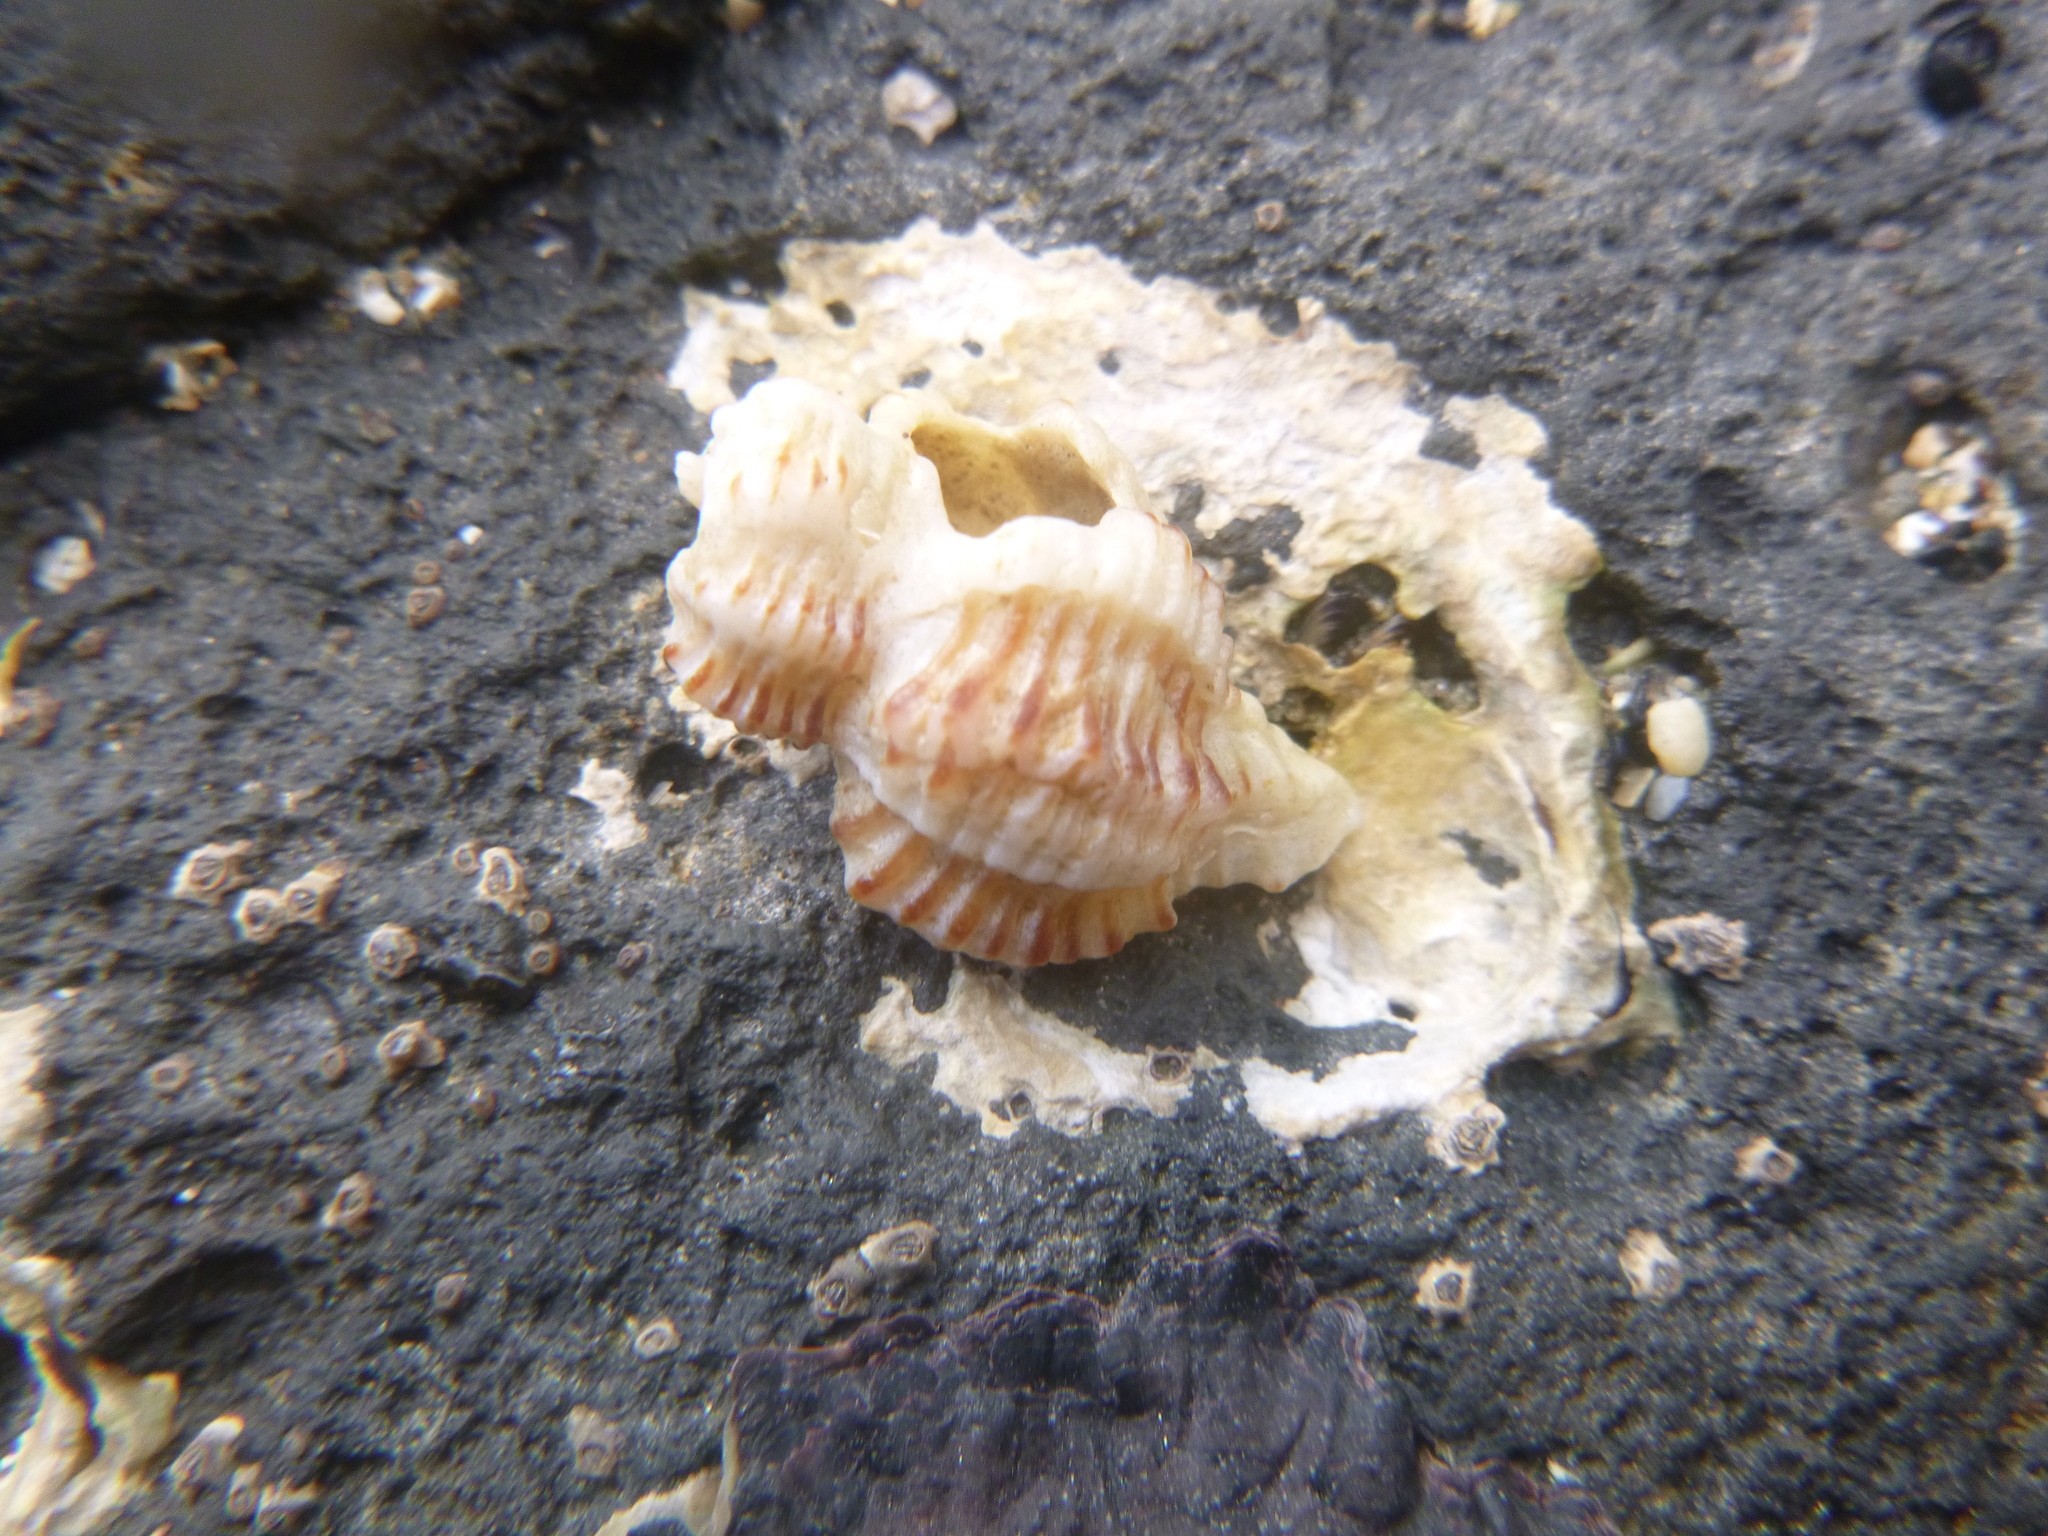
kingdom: Animalia
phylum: Mollusca
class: Gastropoda
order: Neogastropoda
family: Muricidae
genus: Murexsul
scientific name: Murexsul octogonus
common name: Octagon murex
